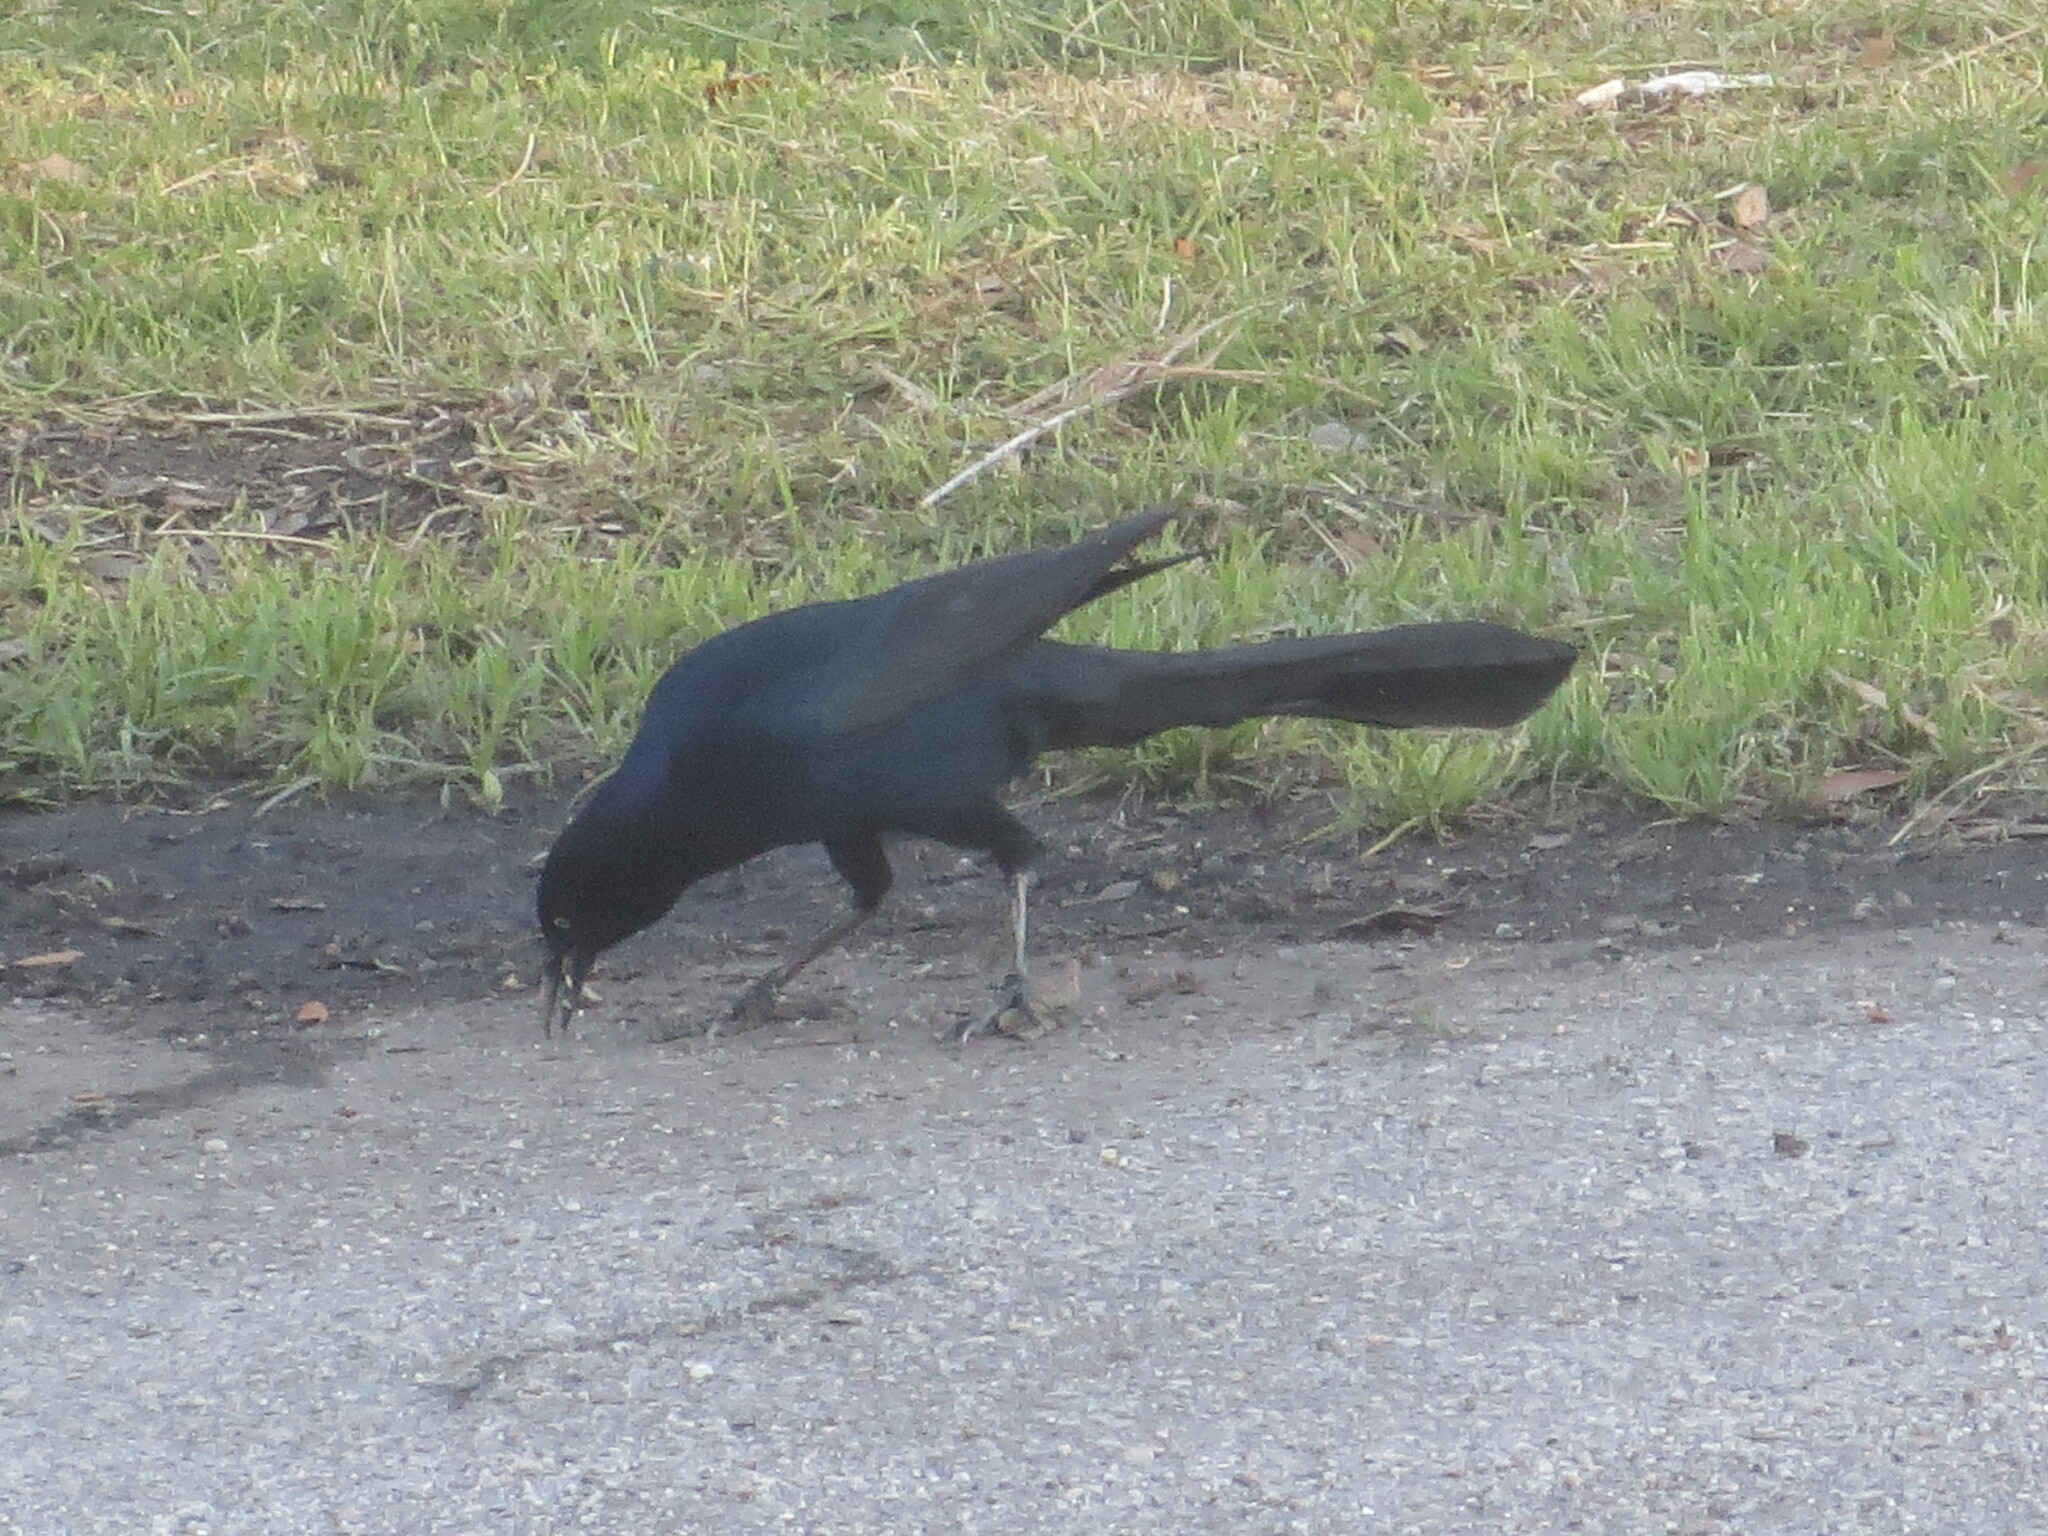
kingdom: Animalia
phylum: Chordata
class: Aves
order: Passeriformes
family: Icteridae
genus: Quiscalus
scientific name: Quiscalus major
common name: Boat-tailed grackle
